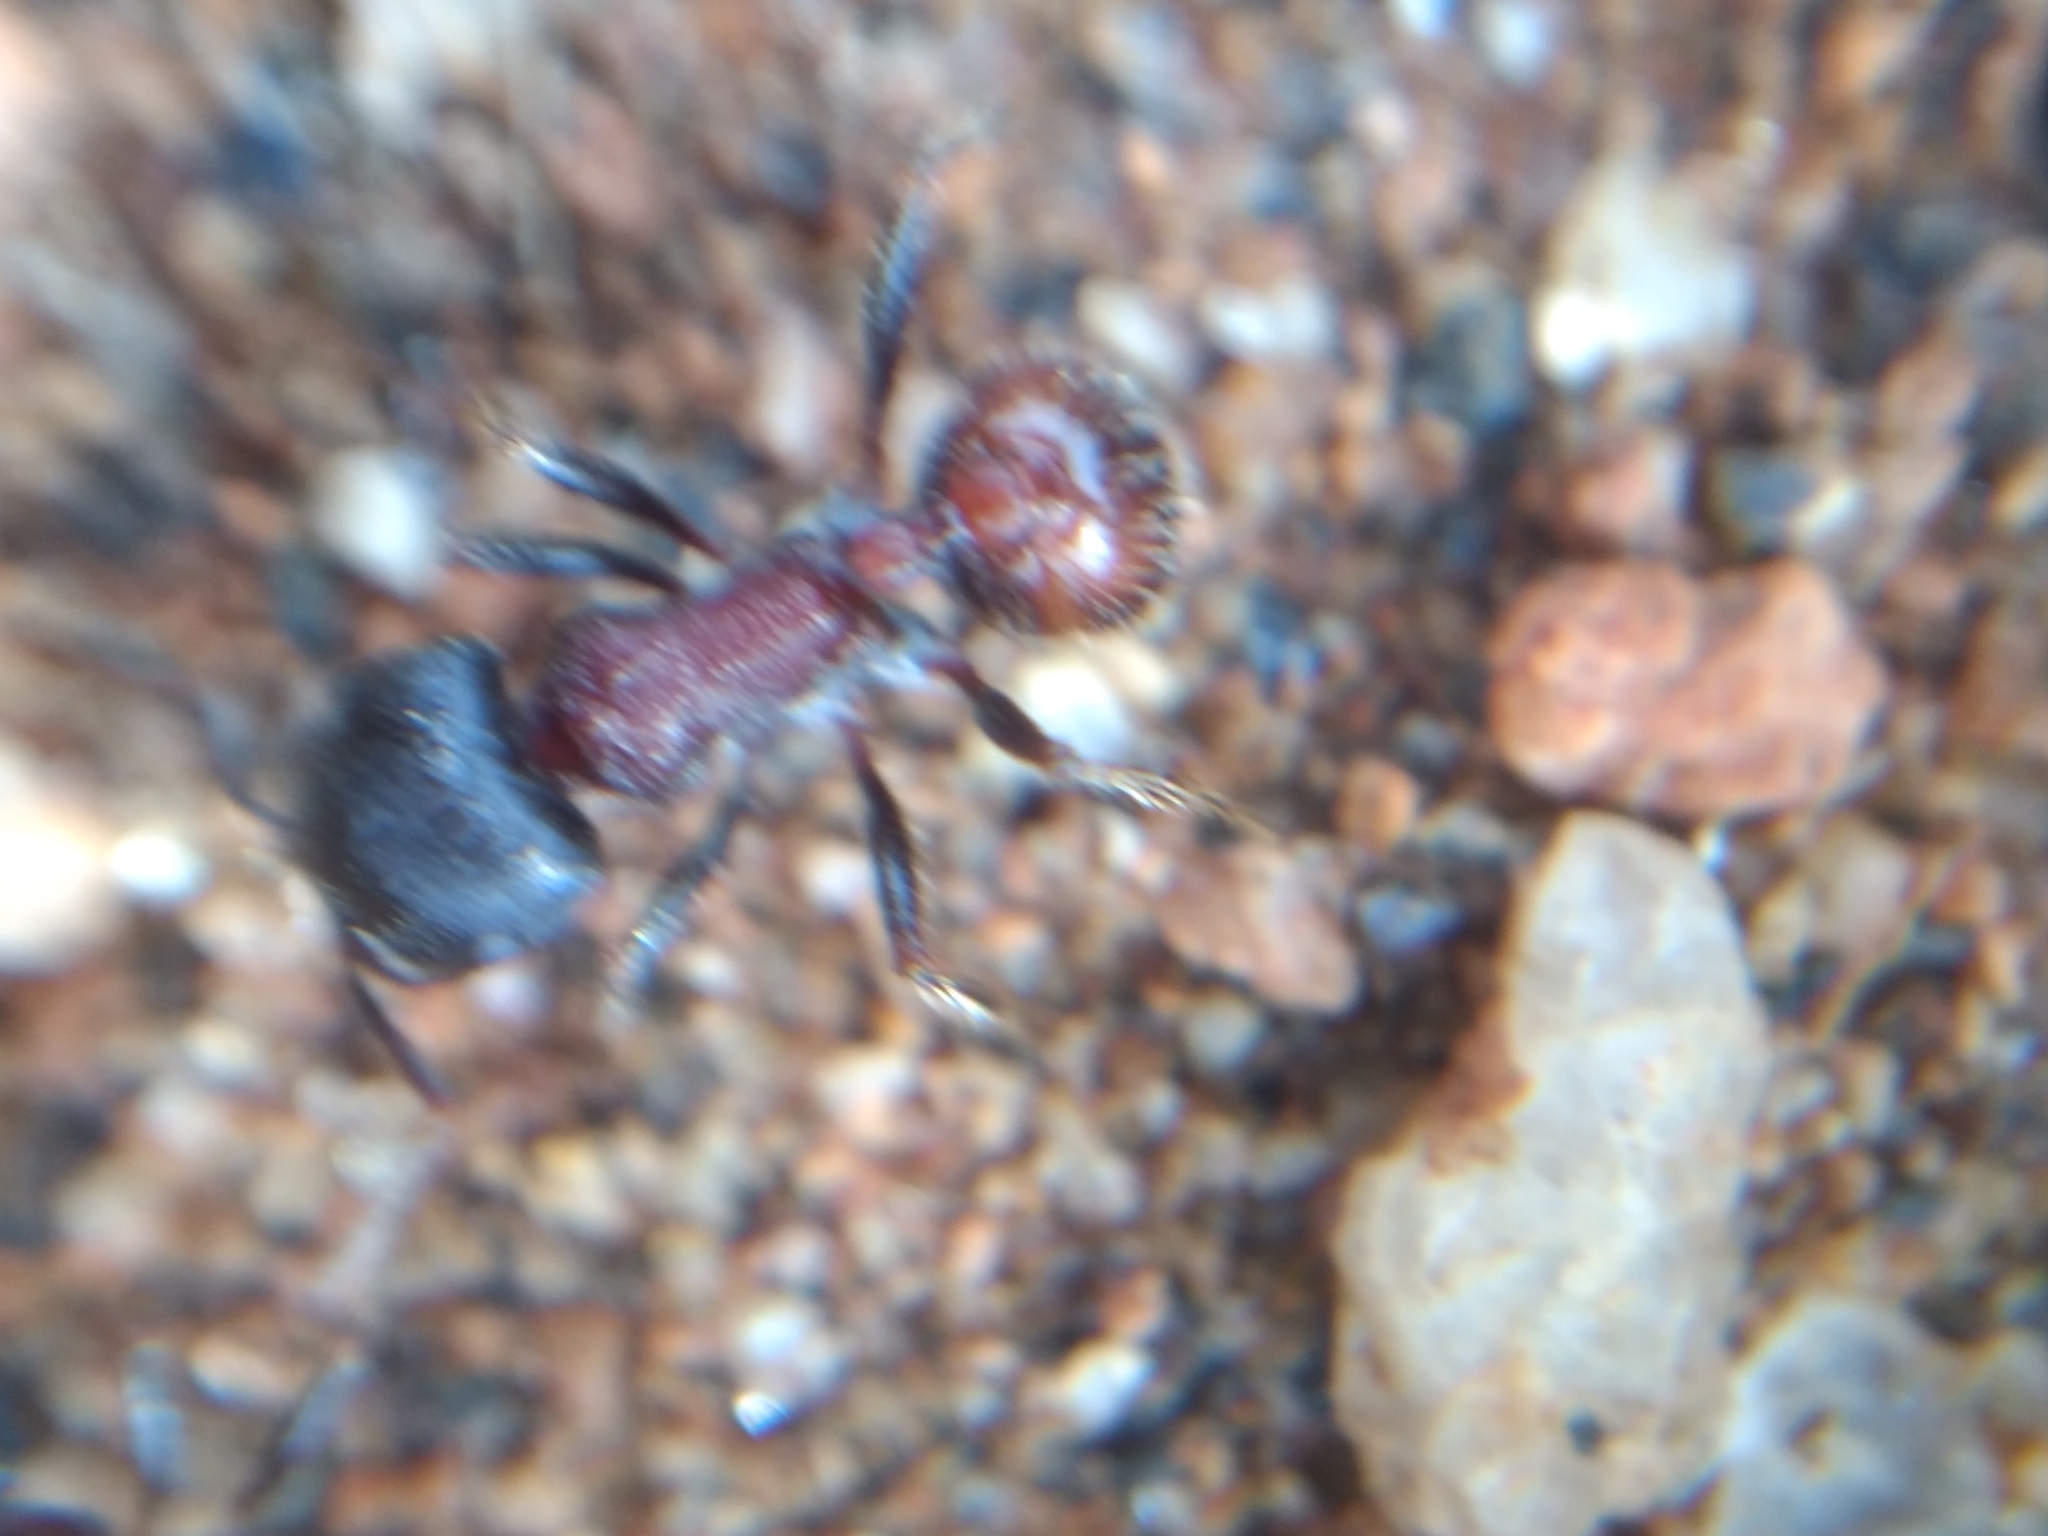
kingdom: Animalia
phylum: Arthropoda
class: Insecta
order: Hymenoptera
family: Formicidae
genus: Pogonomyrmex
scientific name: Pogonomyrmex rugosus
